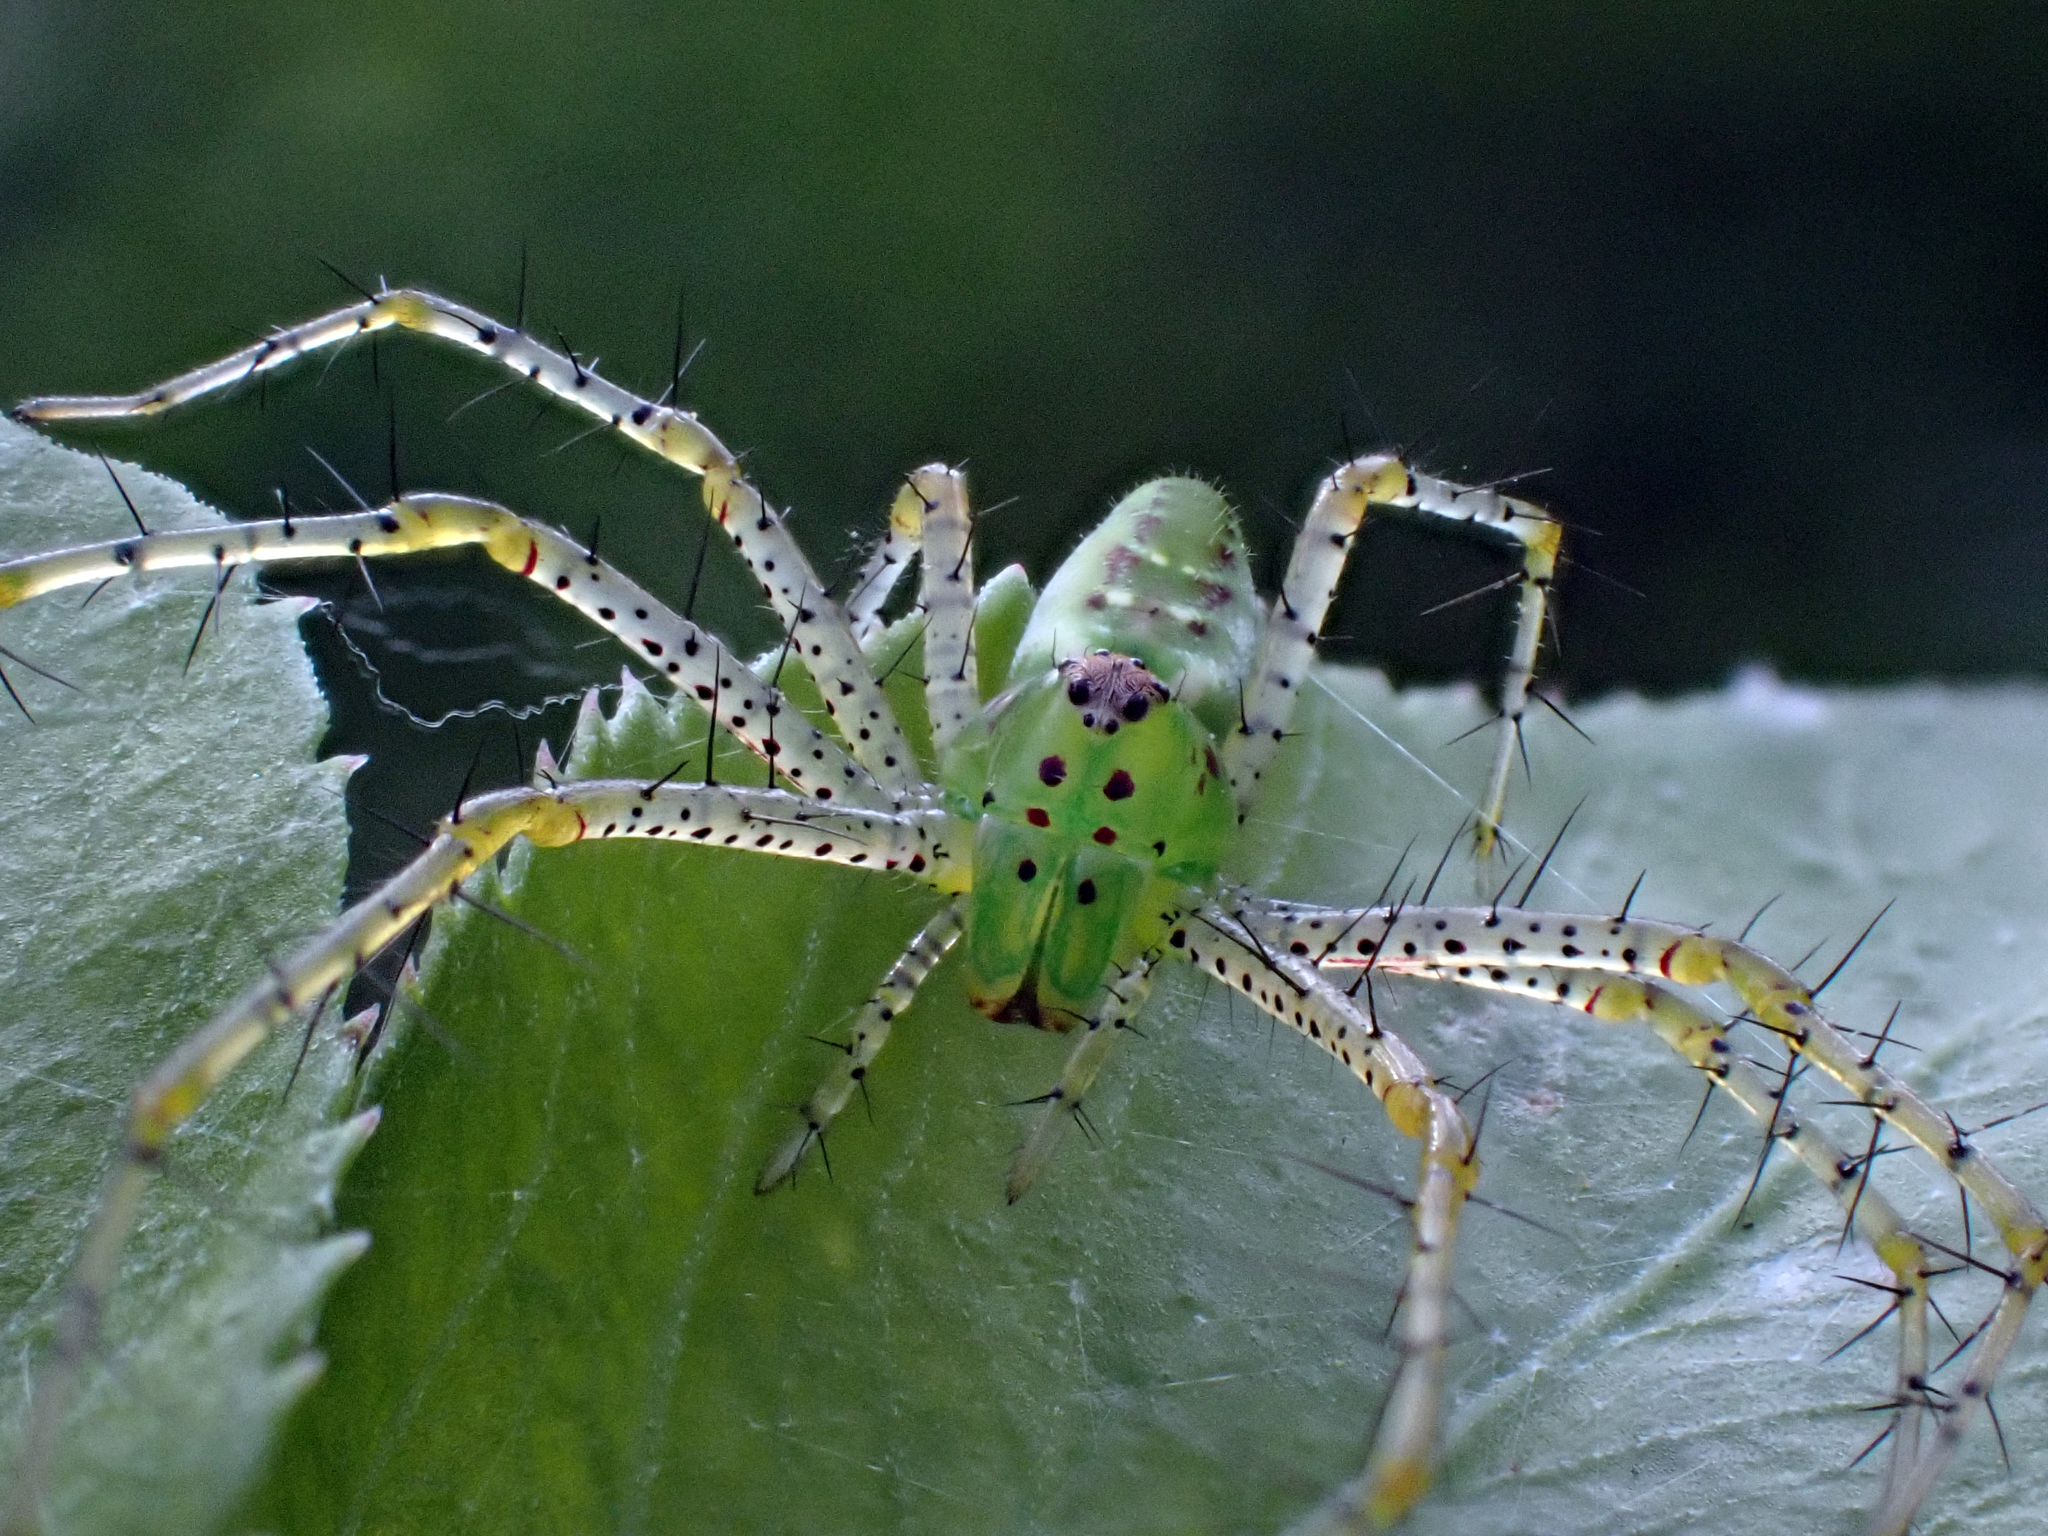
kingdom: Animalia
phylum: Arthropoda
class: Arachnida
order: Araneae
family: Oxyopidae
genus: Peucetia
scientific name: Peucetia viridans
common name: Lynx spiders
